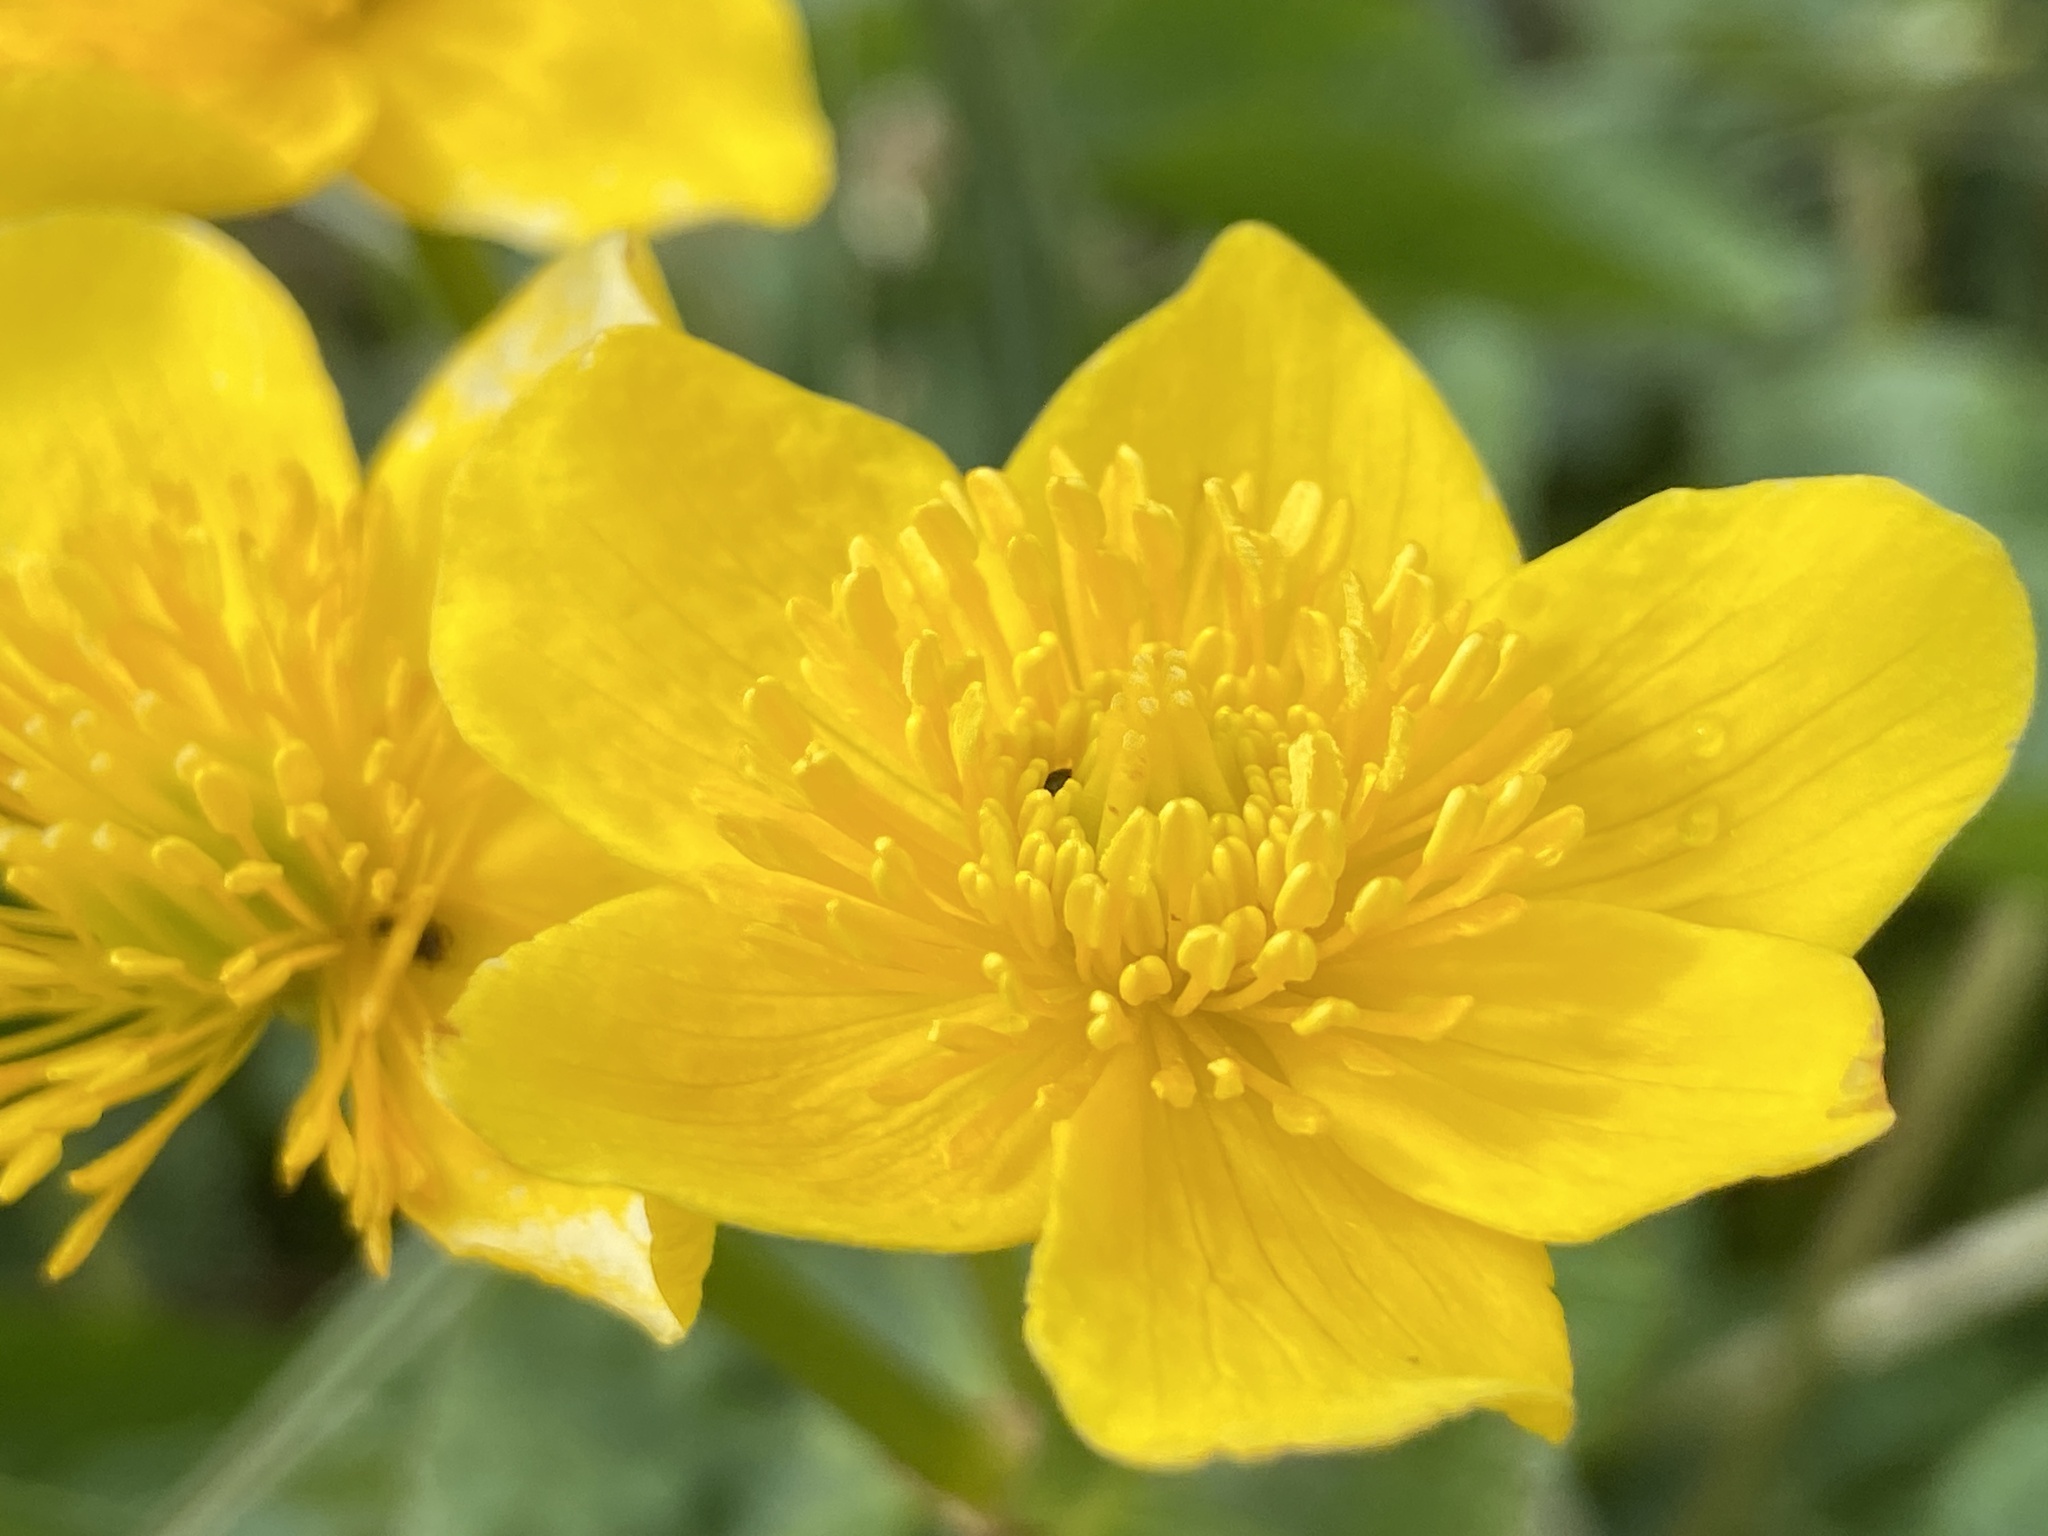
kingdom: Plantae
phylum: Tracheophyta
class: Magnoliopsida
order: Ranunculales
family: Ranunculaceae
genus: Caltha
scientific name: Caltha palustris
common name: Marsh marigold
